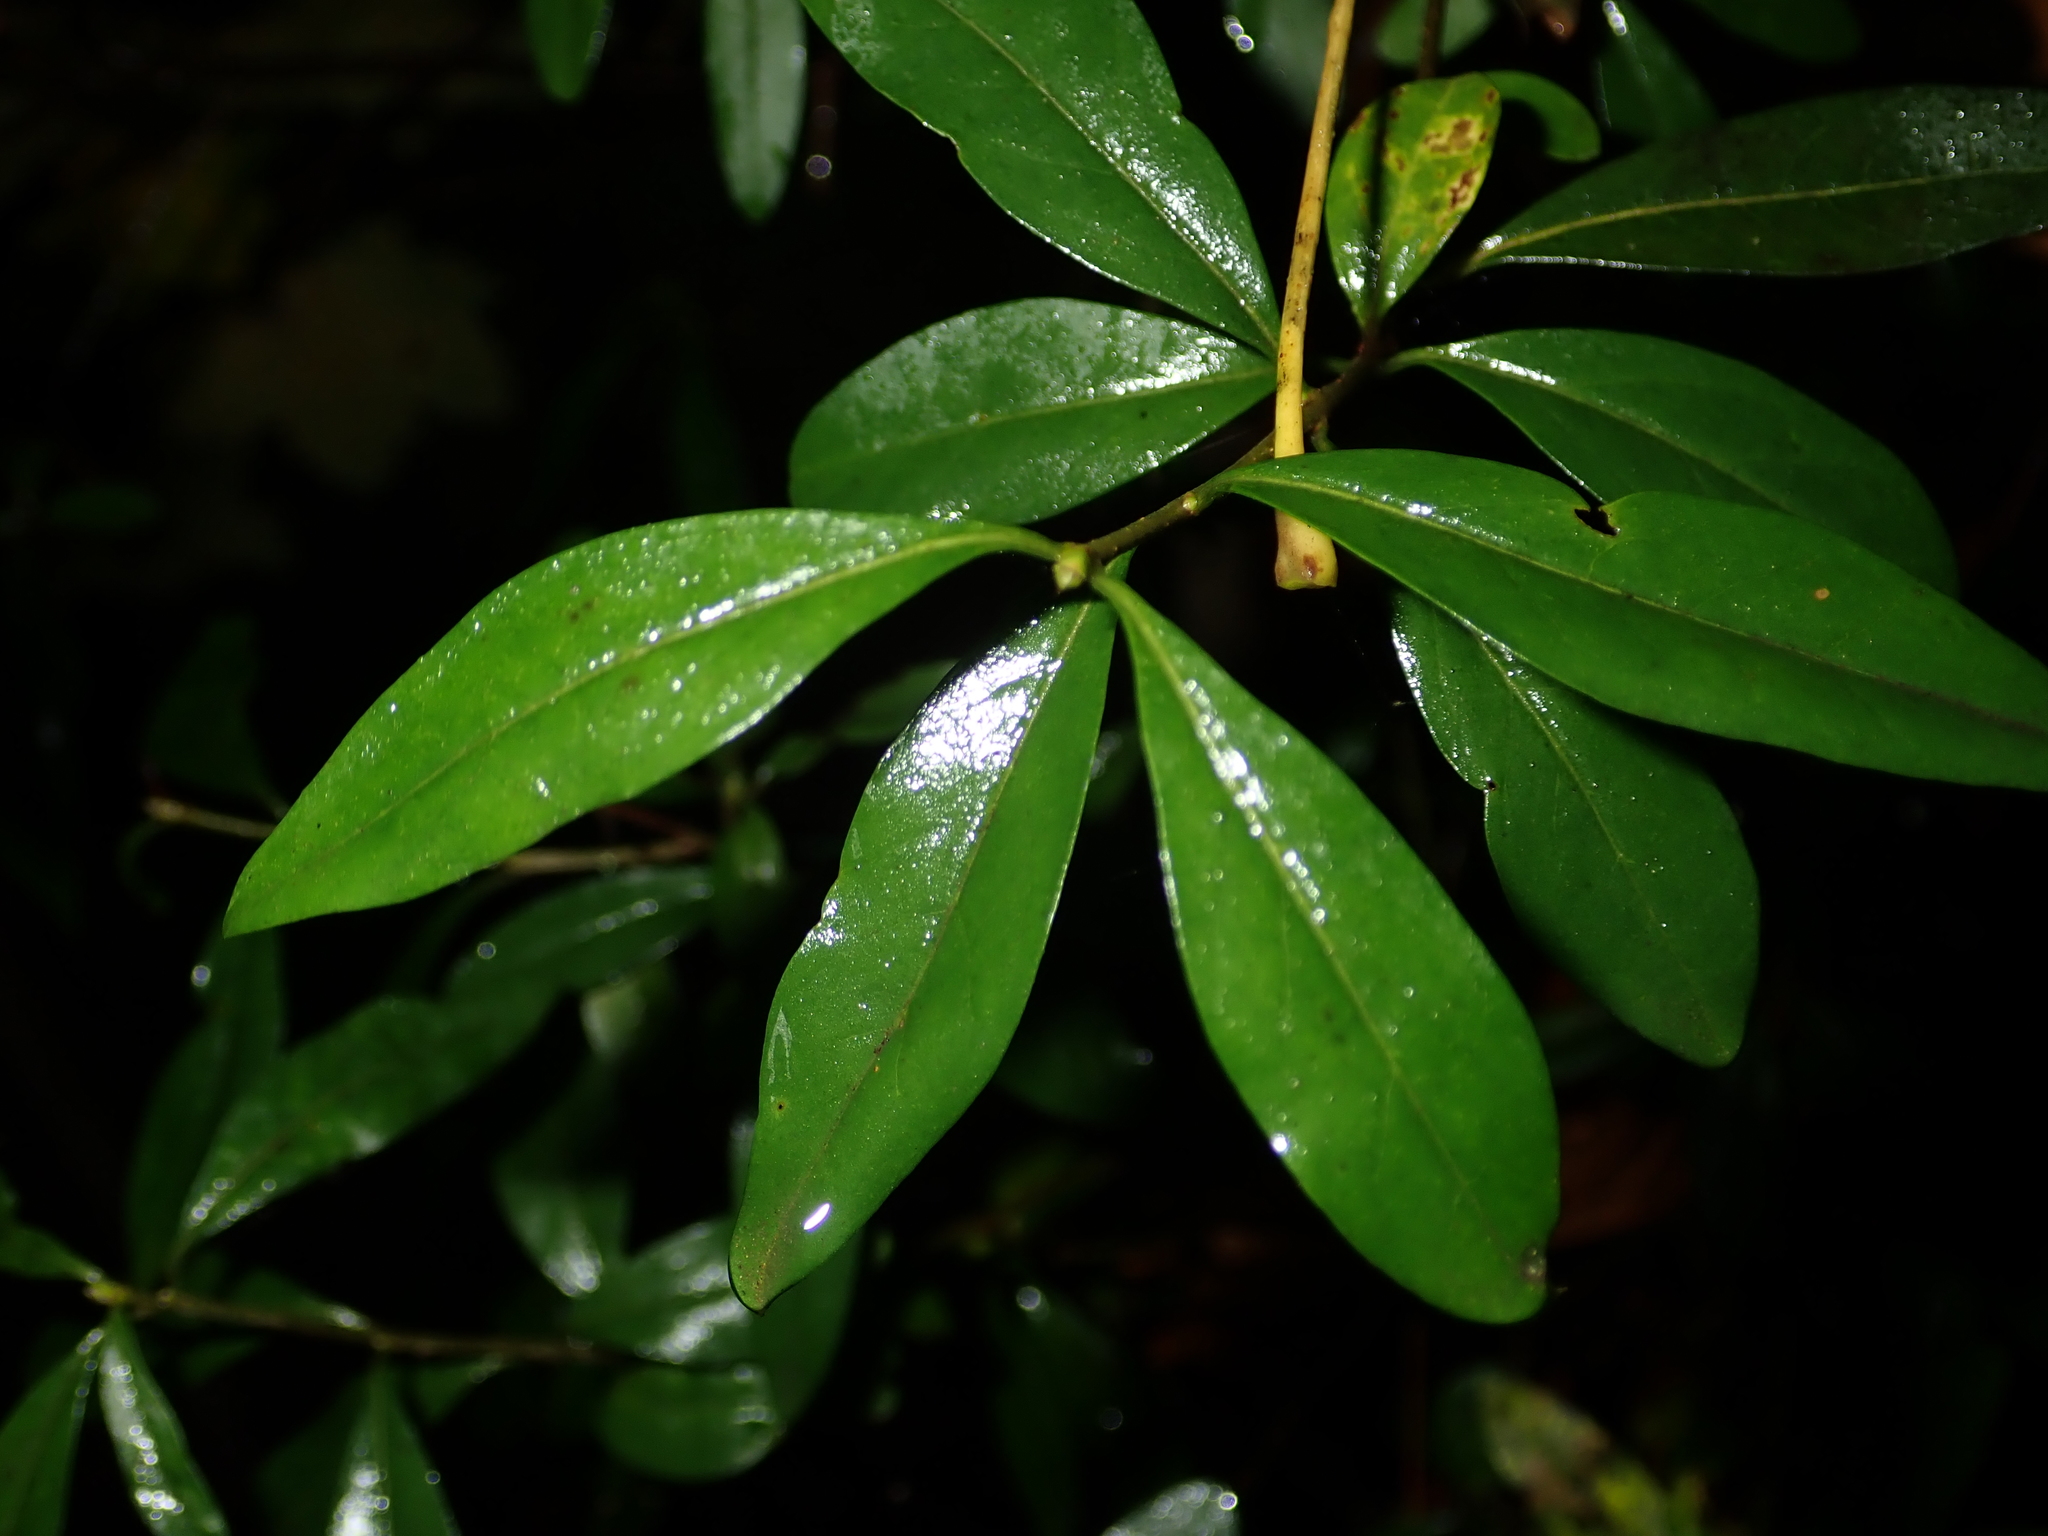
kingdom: Plantae
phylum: Tracheophyta
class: Magnoliopsida
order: Lamiales
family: Oleaceae
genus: Ligustrum
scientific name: Ligustrum vulgare
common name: Wild privet
